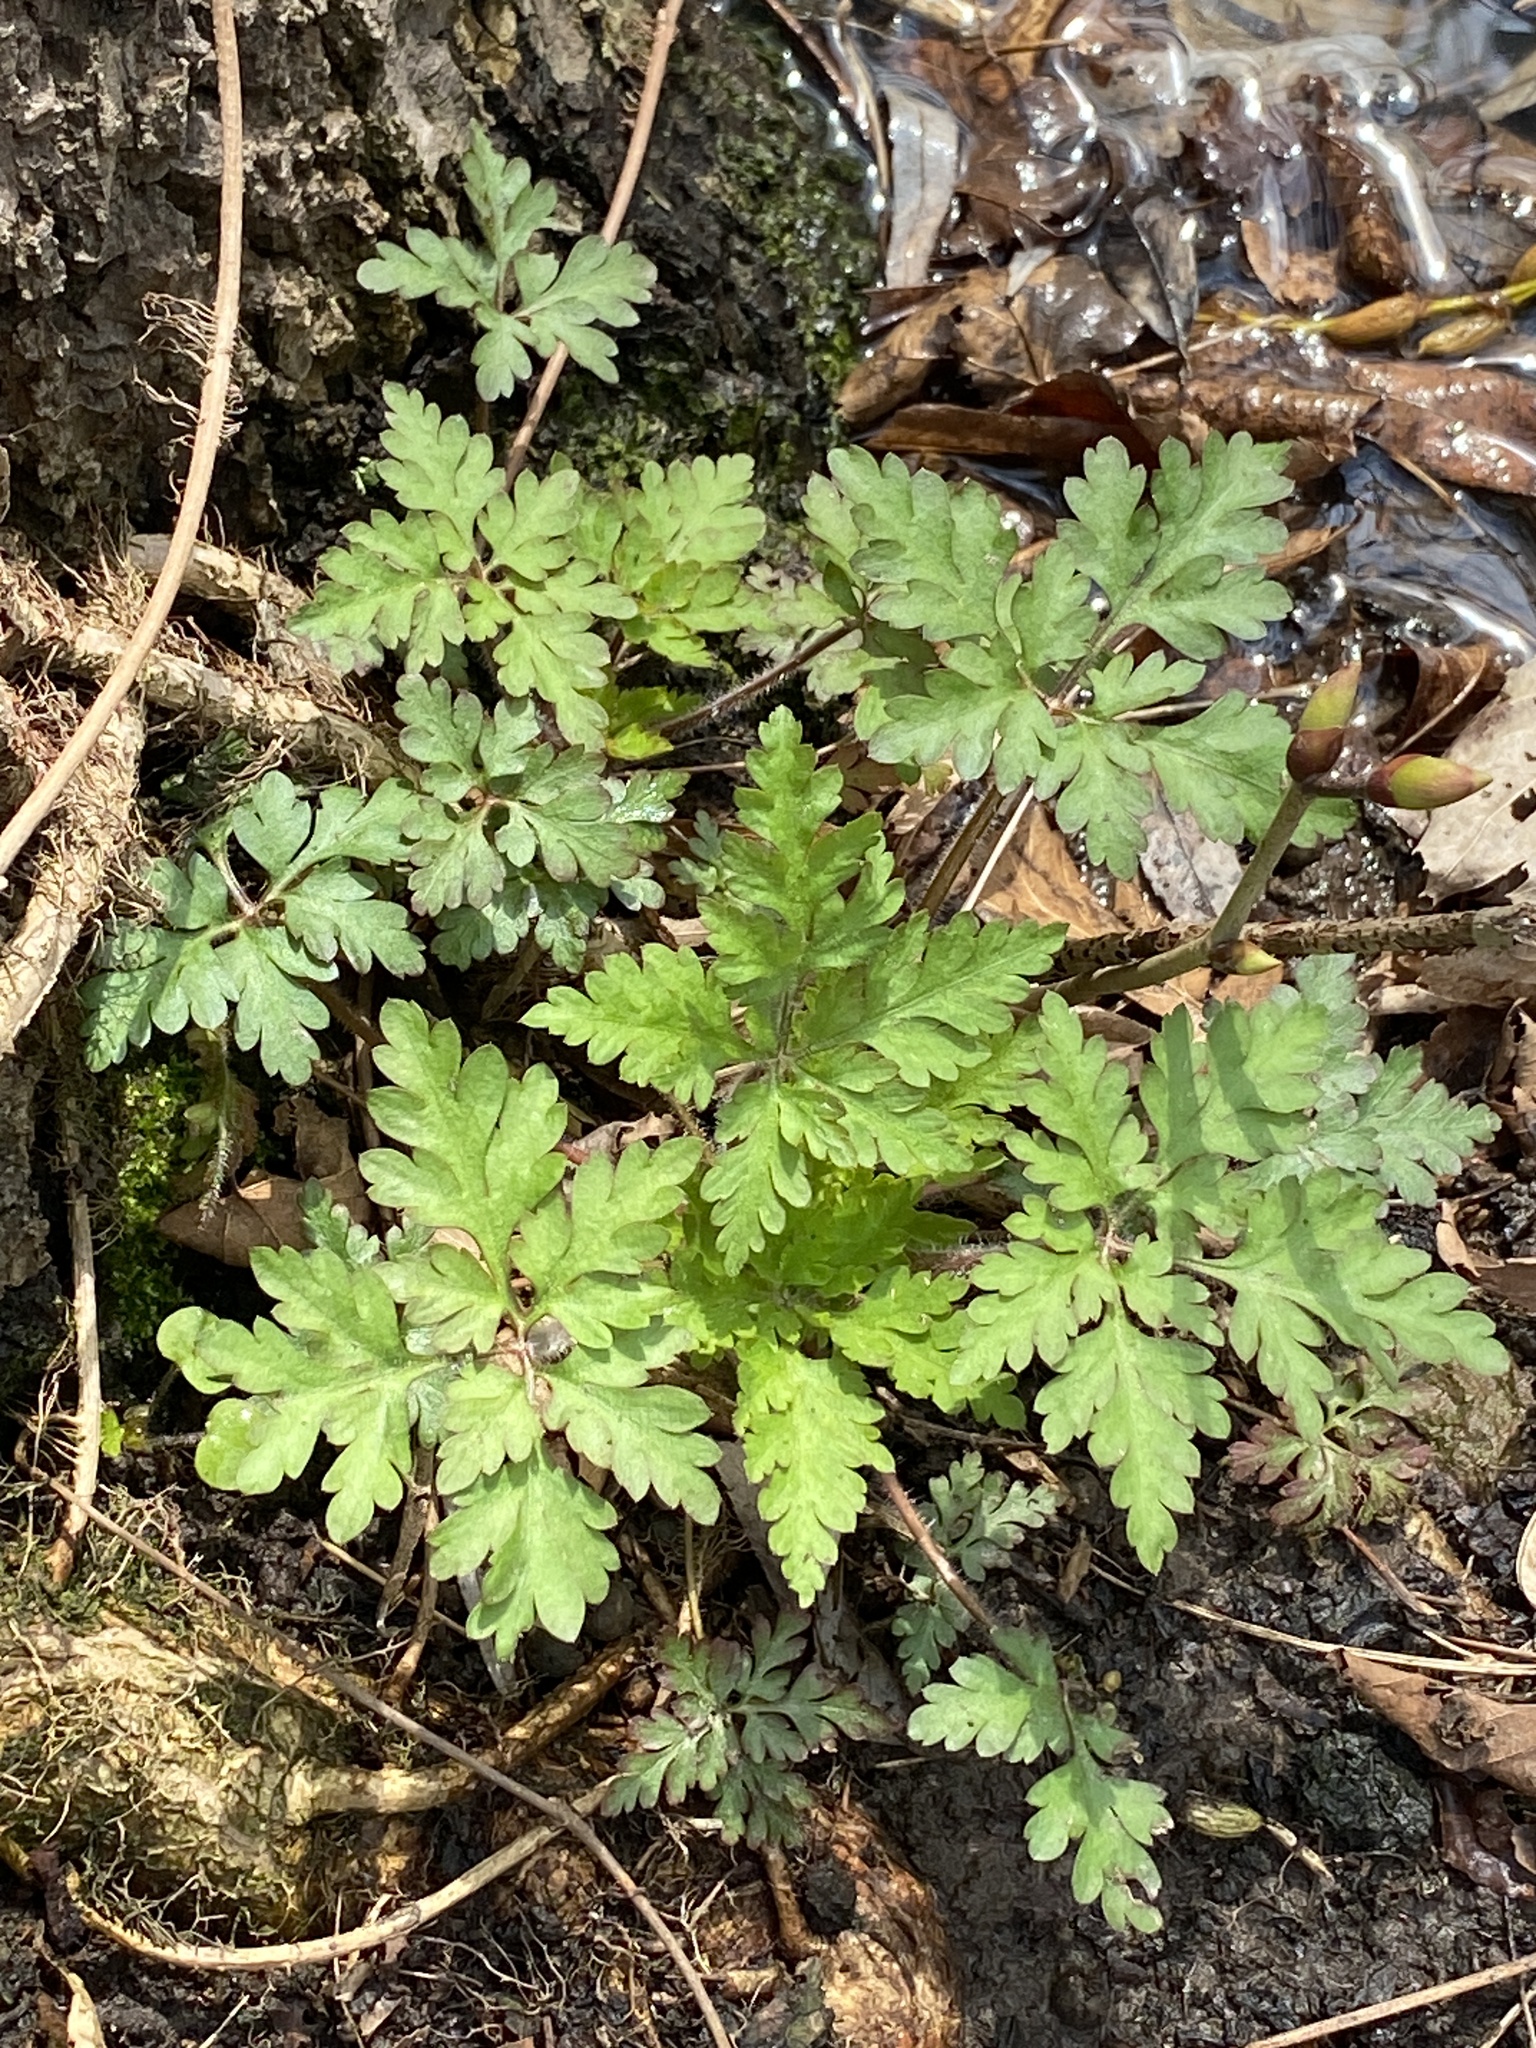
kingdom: Plantae
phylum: Tracheophyta
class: Magnoliopsida
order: Geraniales
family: Geraniaceae
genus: Geranium
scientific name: Geranium robertianum
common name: Herb-robert
